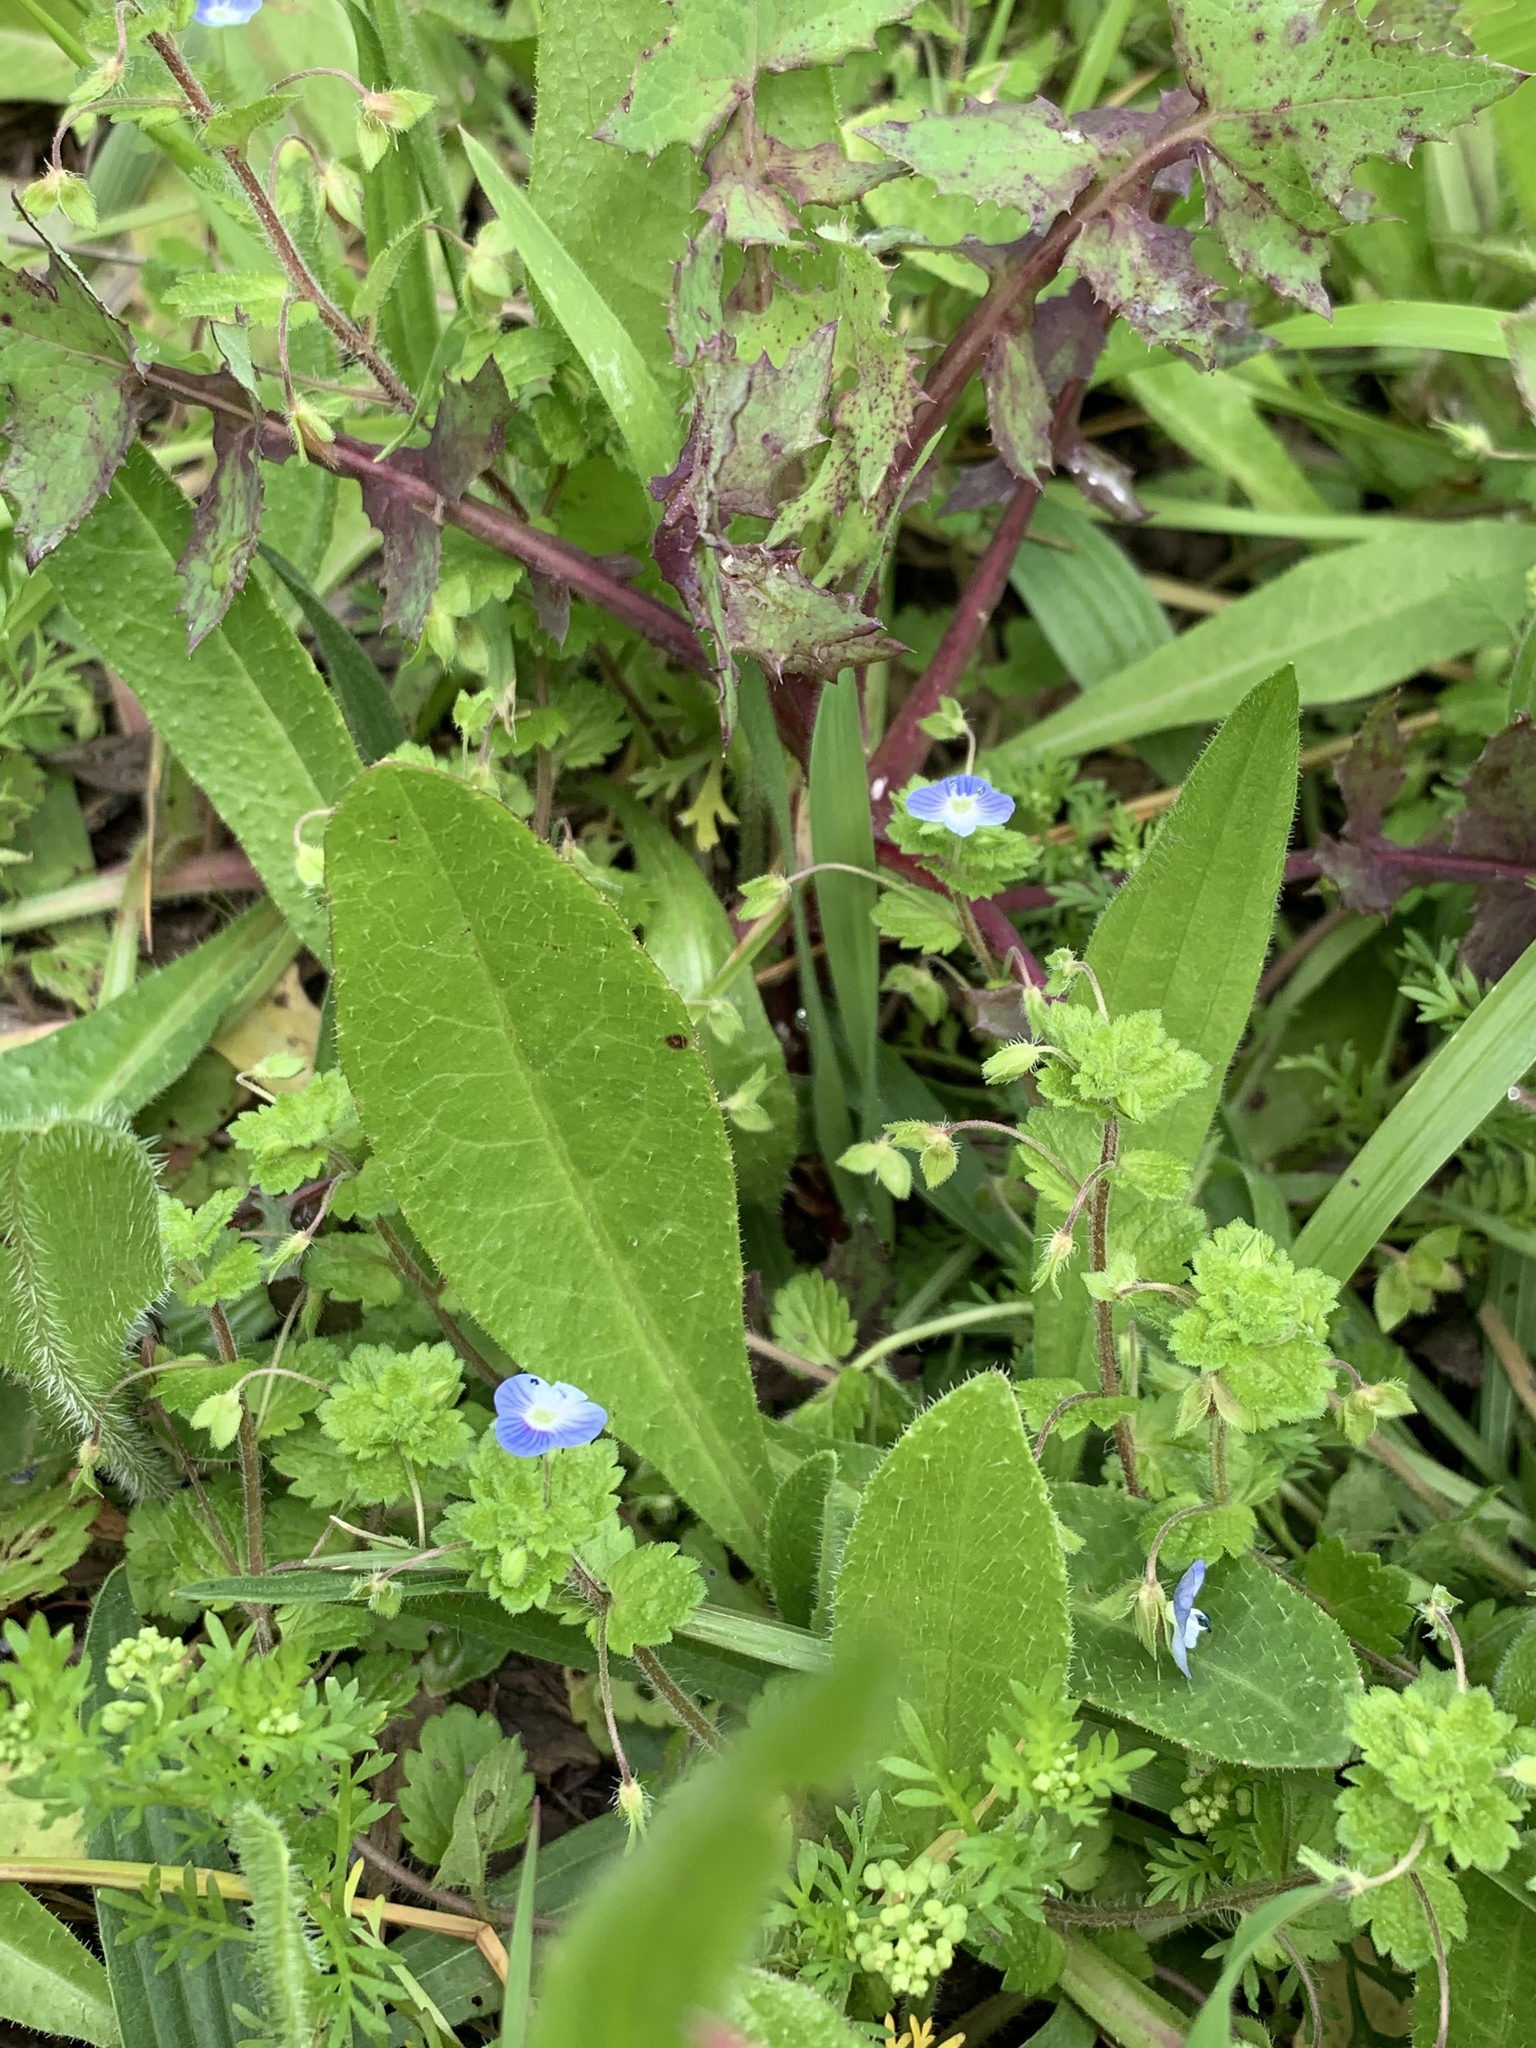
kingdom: Plantae
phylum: Tracheophyta
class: Magnoliopsida
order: Lamiales
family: Plantaginaceae
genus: Veronica
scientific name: Veronica persica
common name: Common field-speedwell
